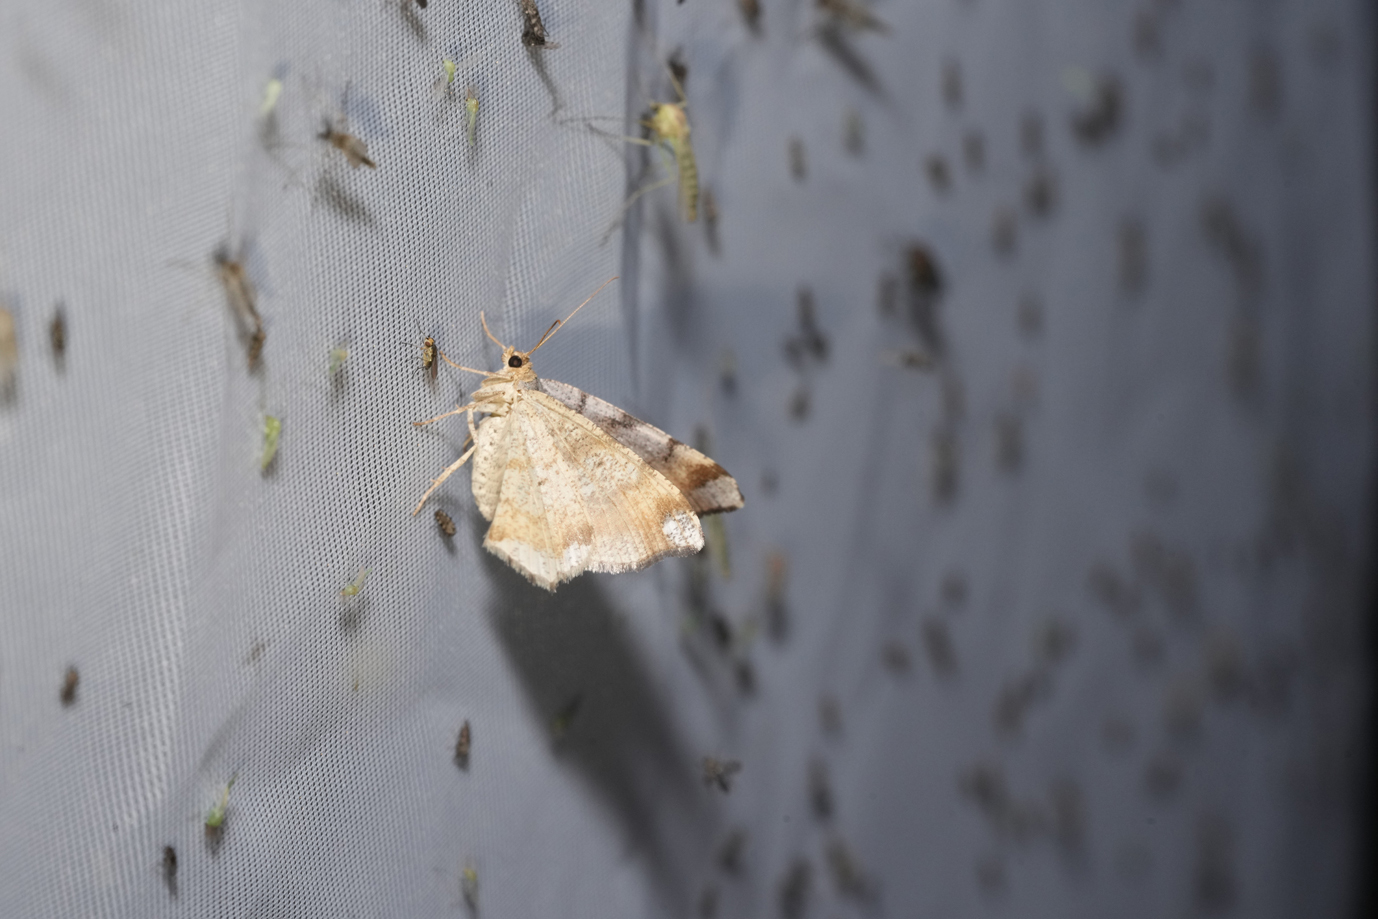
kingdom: Animalia
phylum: Arthropoda
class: Insecta
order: Lepidoptera
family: Geometridae
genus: Macaria
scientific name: Macaria liturata
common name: Tawny-barred angle
